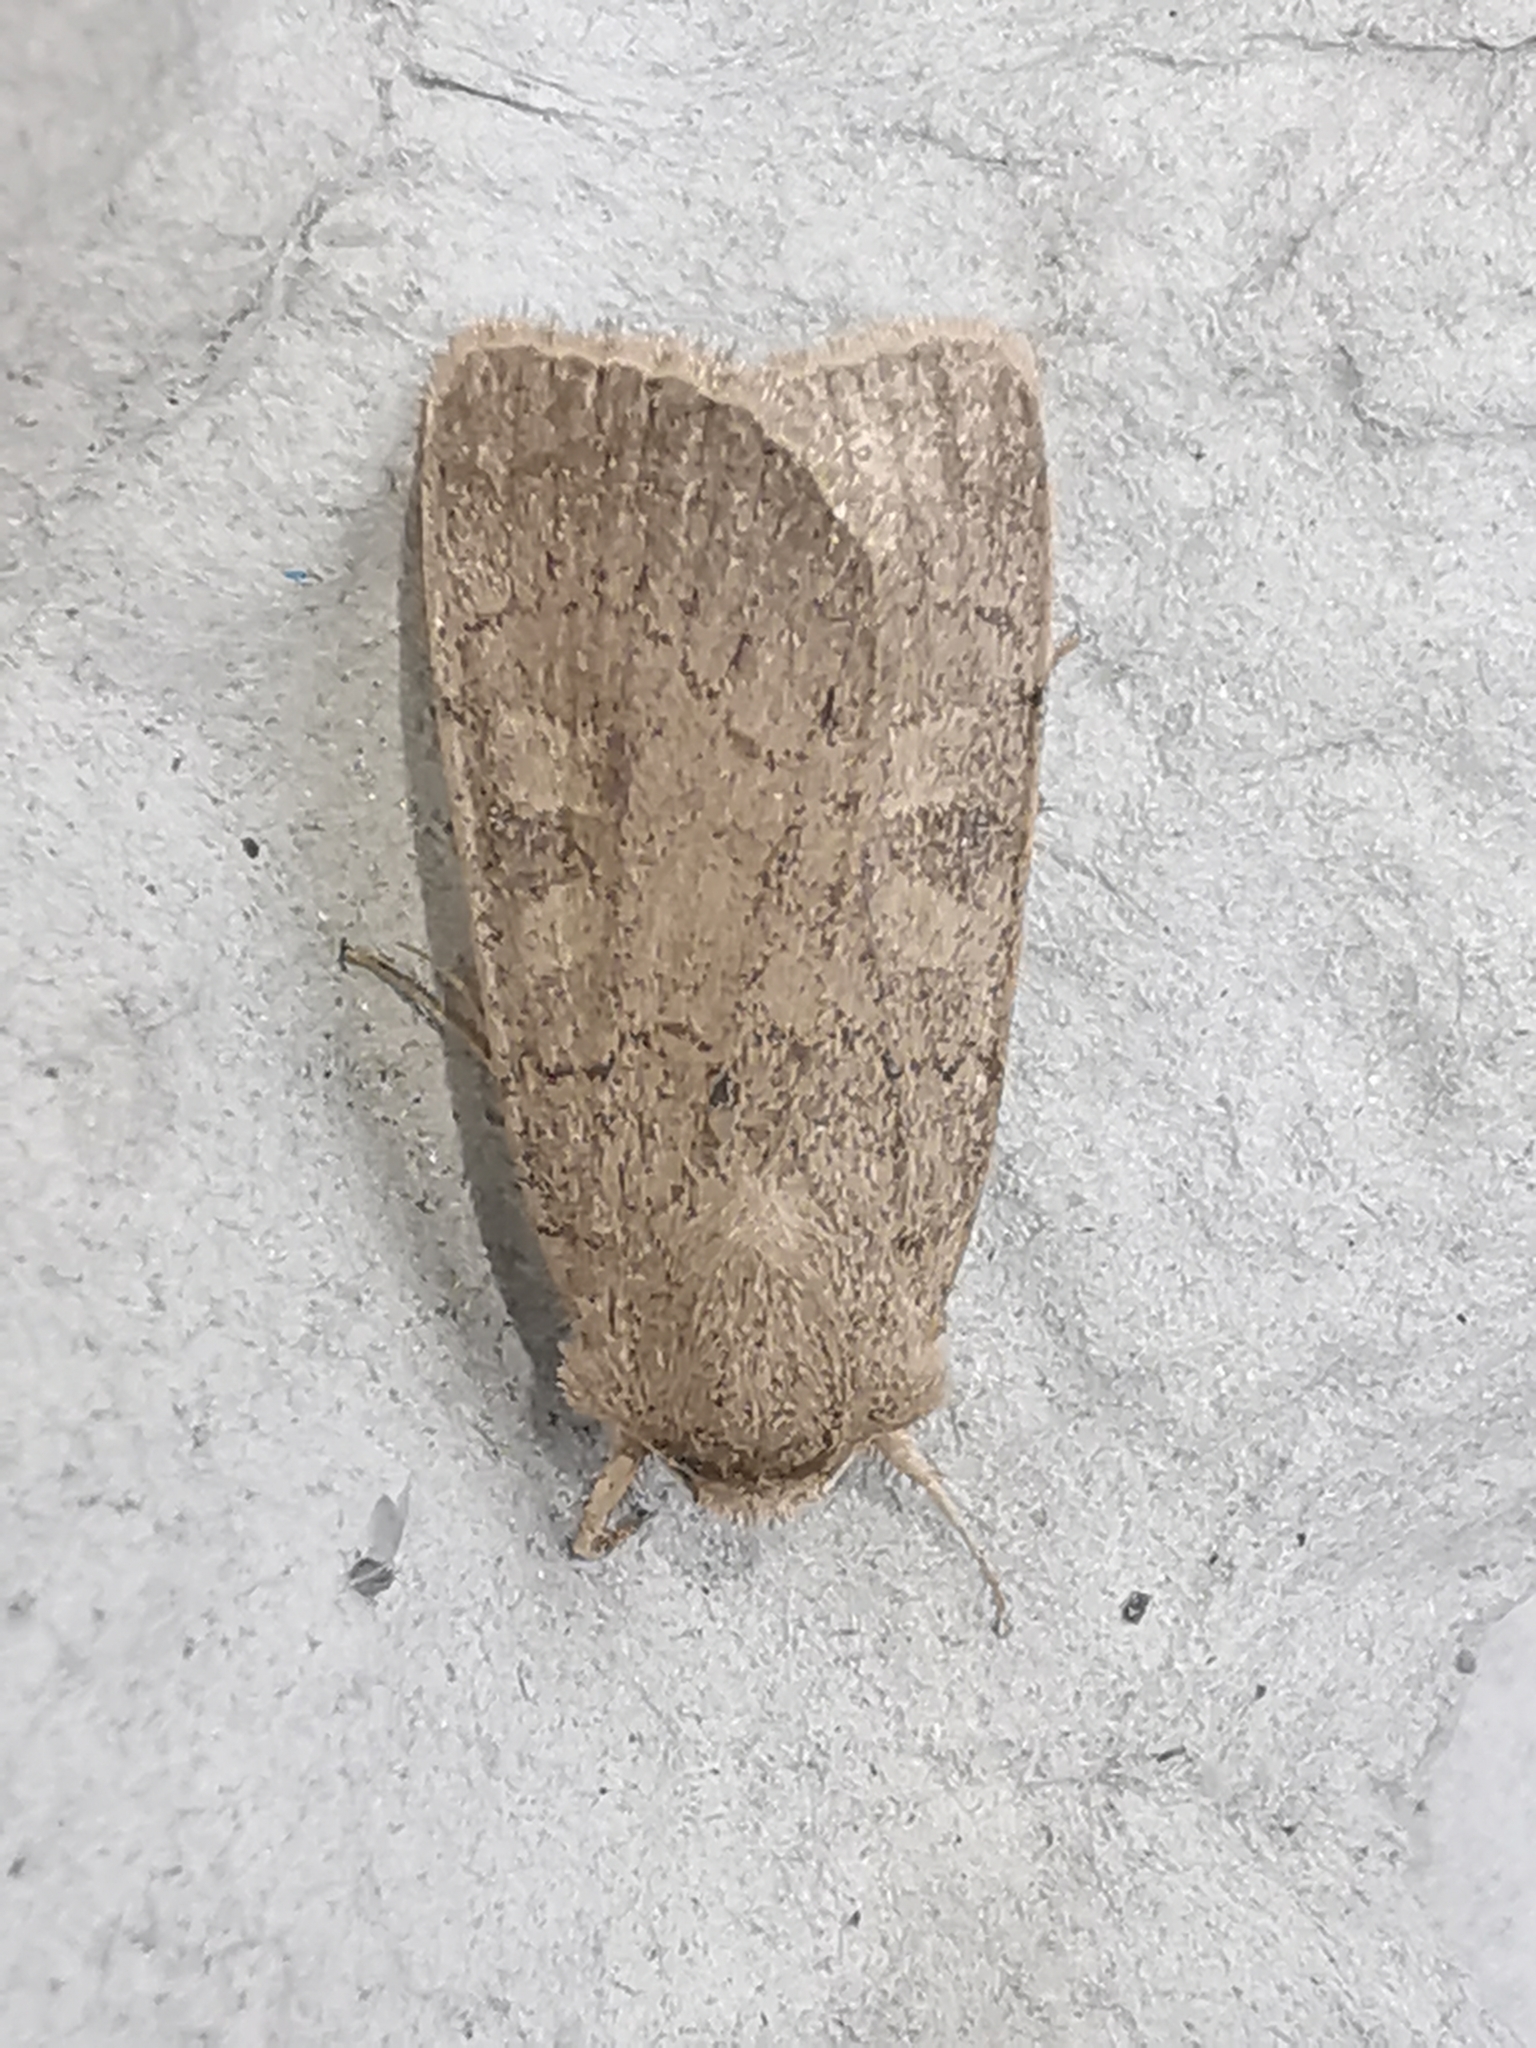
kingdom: Animalia
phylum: Arthropoda
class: Insecta
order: Lepidoptera
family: Noctuidae
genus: Xestia
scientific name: Xestia xanthographa
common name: Square-spot rustic
